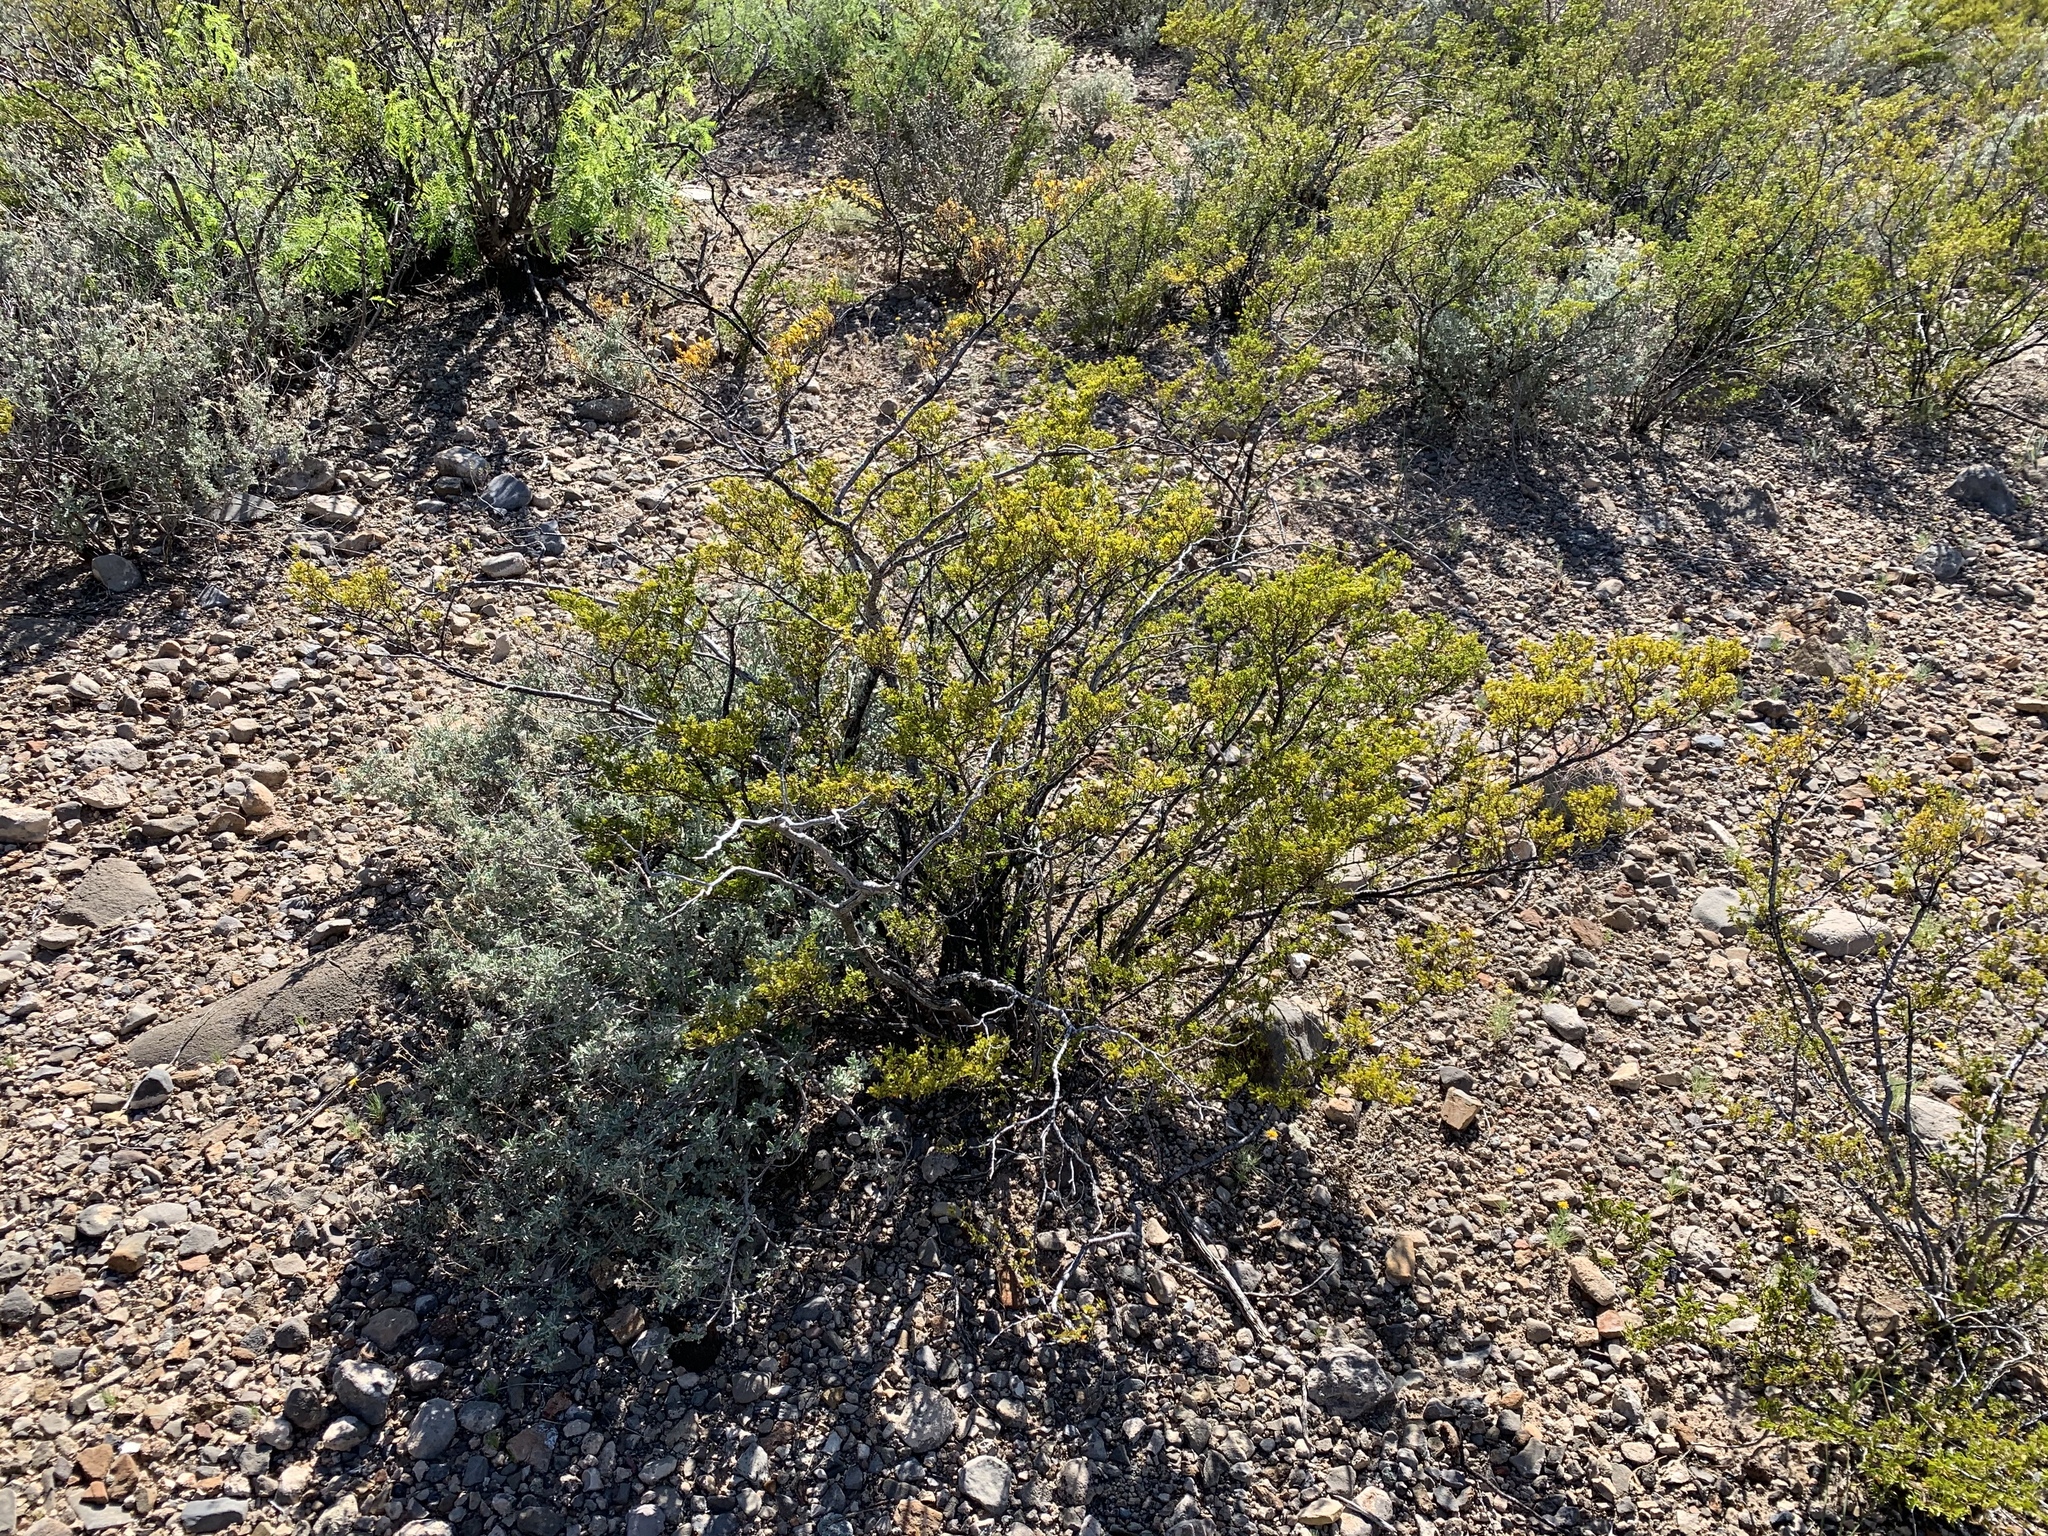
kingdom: Plantae
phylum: Tracheophyta
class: Magnoliopsida
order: Zygophyllales
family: Zygophyllaceae
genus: Larrea
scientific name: Larrea tridentata
